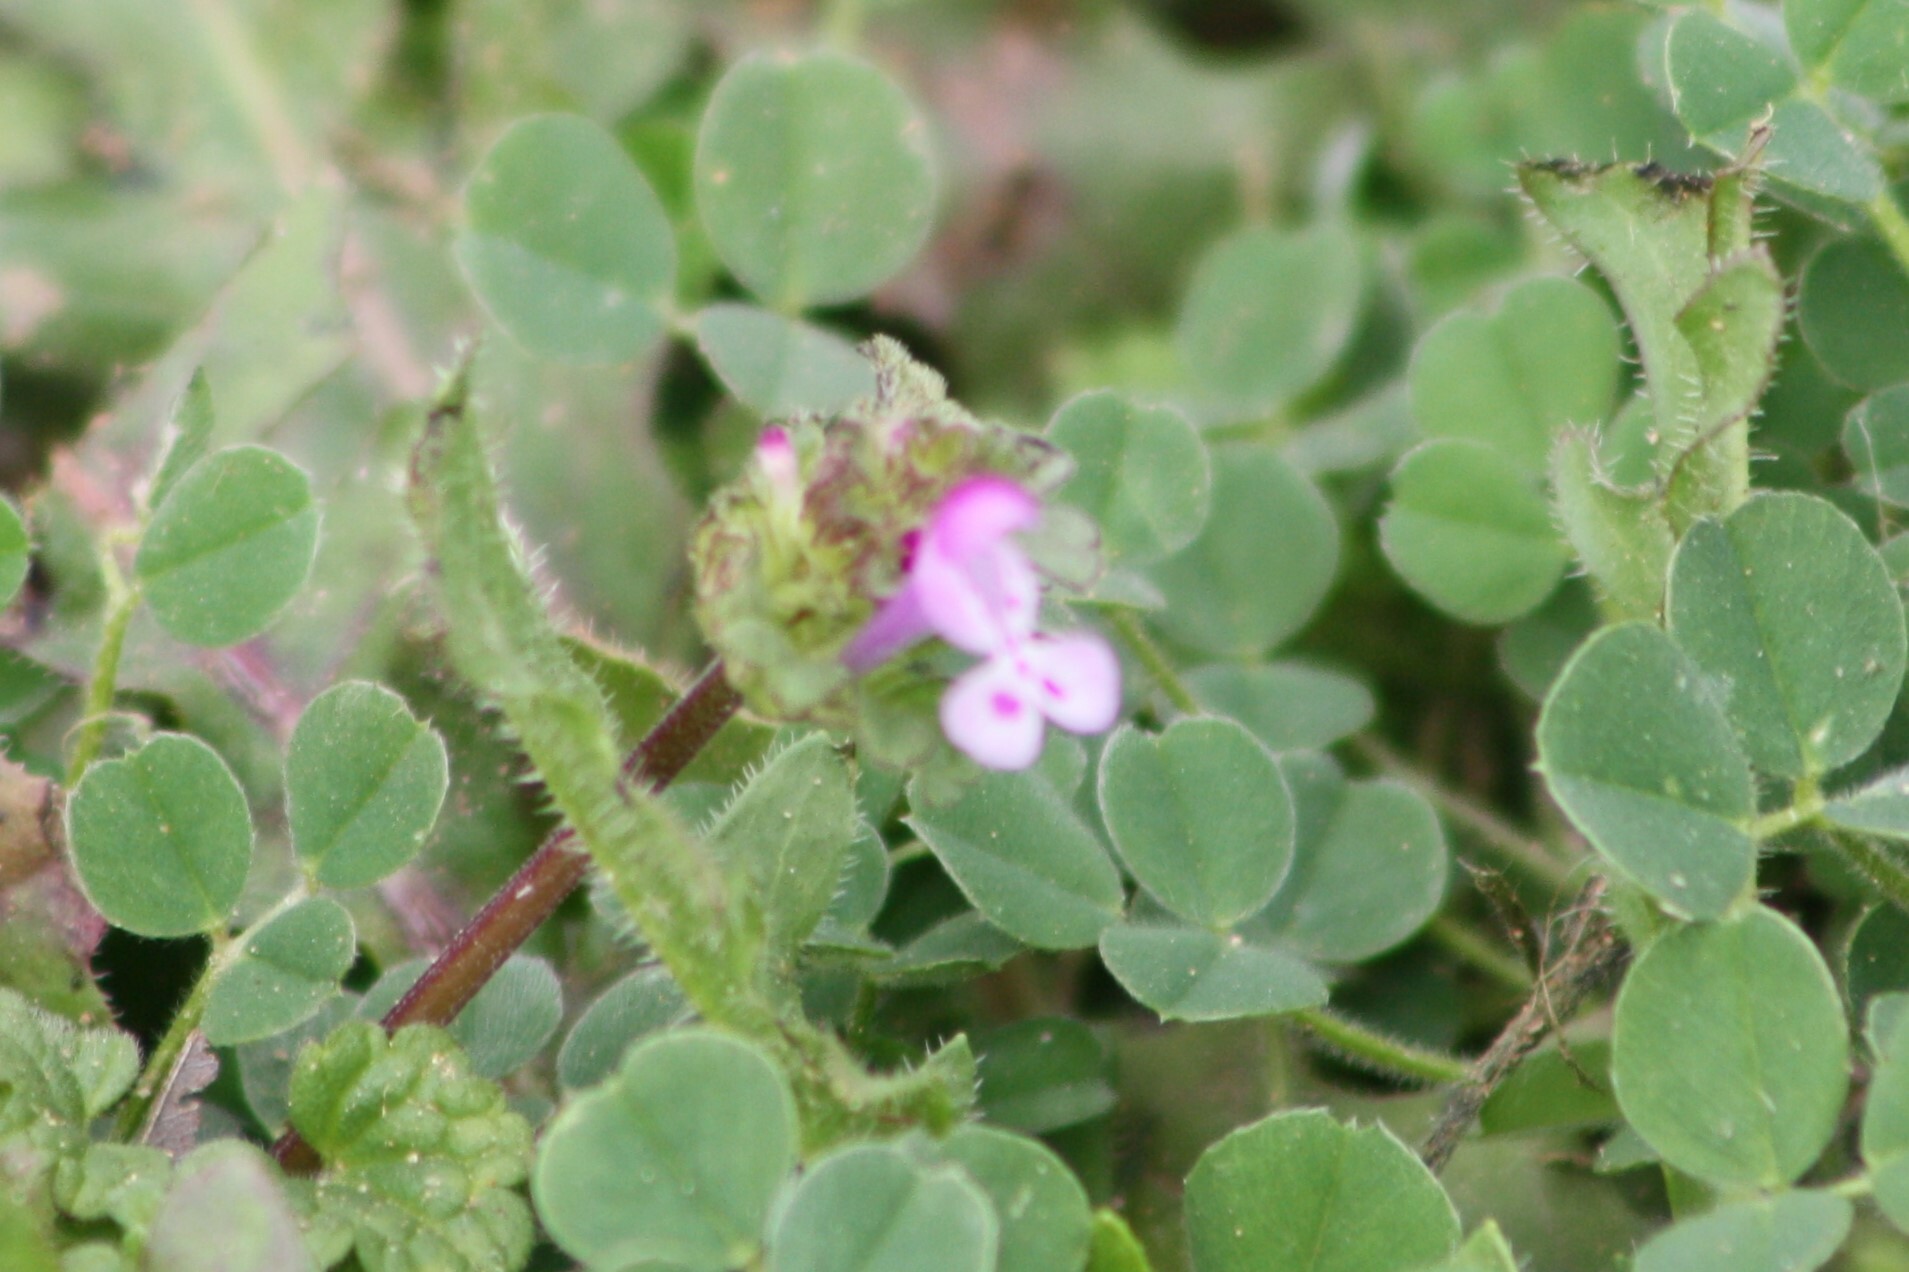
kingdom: Plantae
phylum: Tracheophyta
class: Magnoliopsida
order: Lamiales
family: Lamiaceae
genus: Lamium
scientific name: Lamium amplexicaule
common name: Henbit dead-nettle
